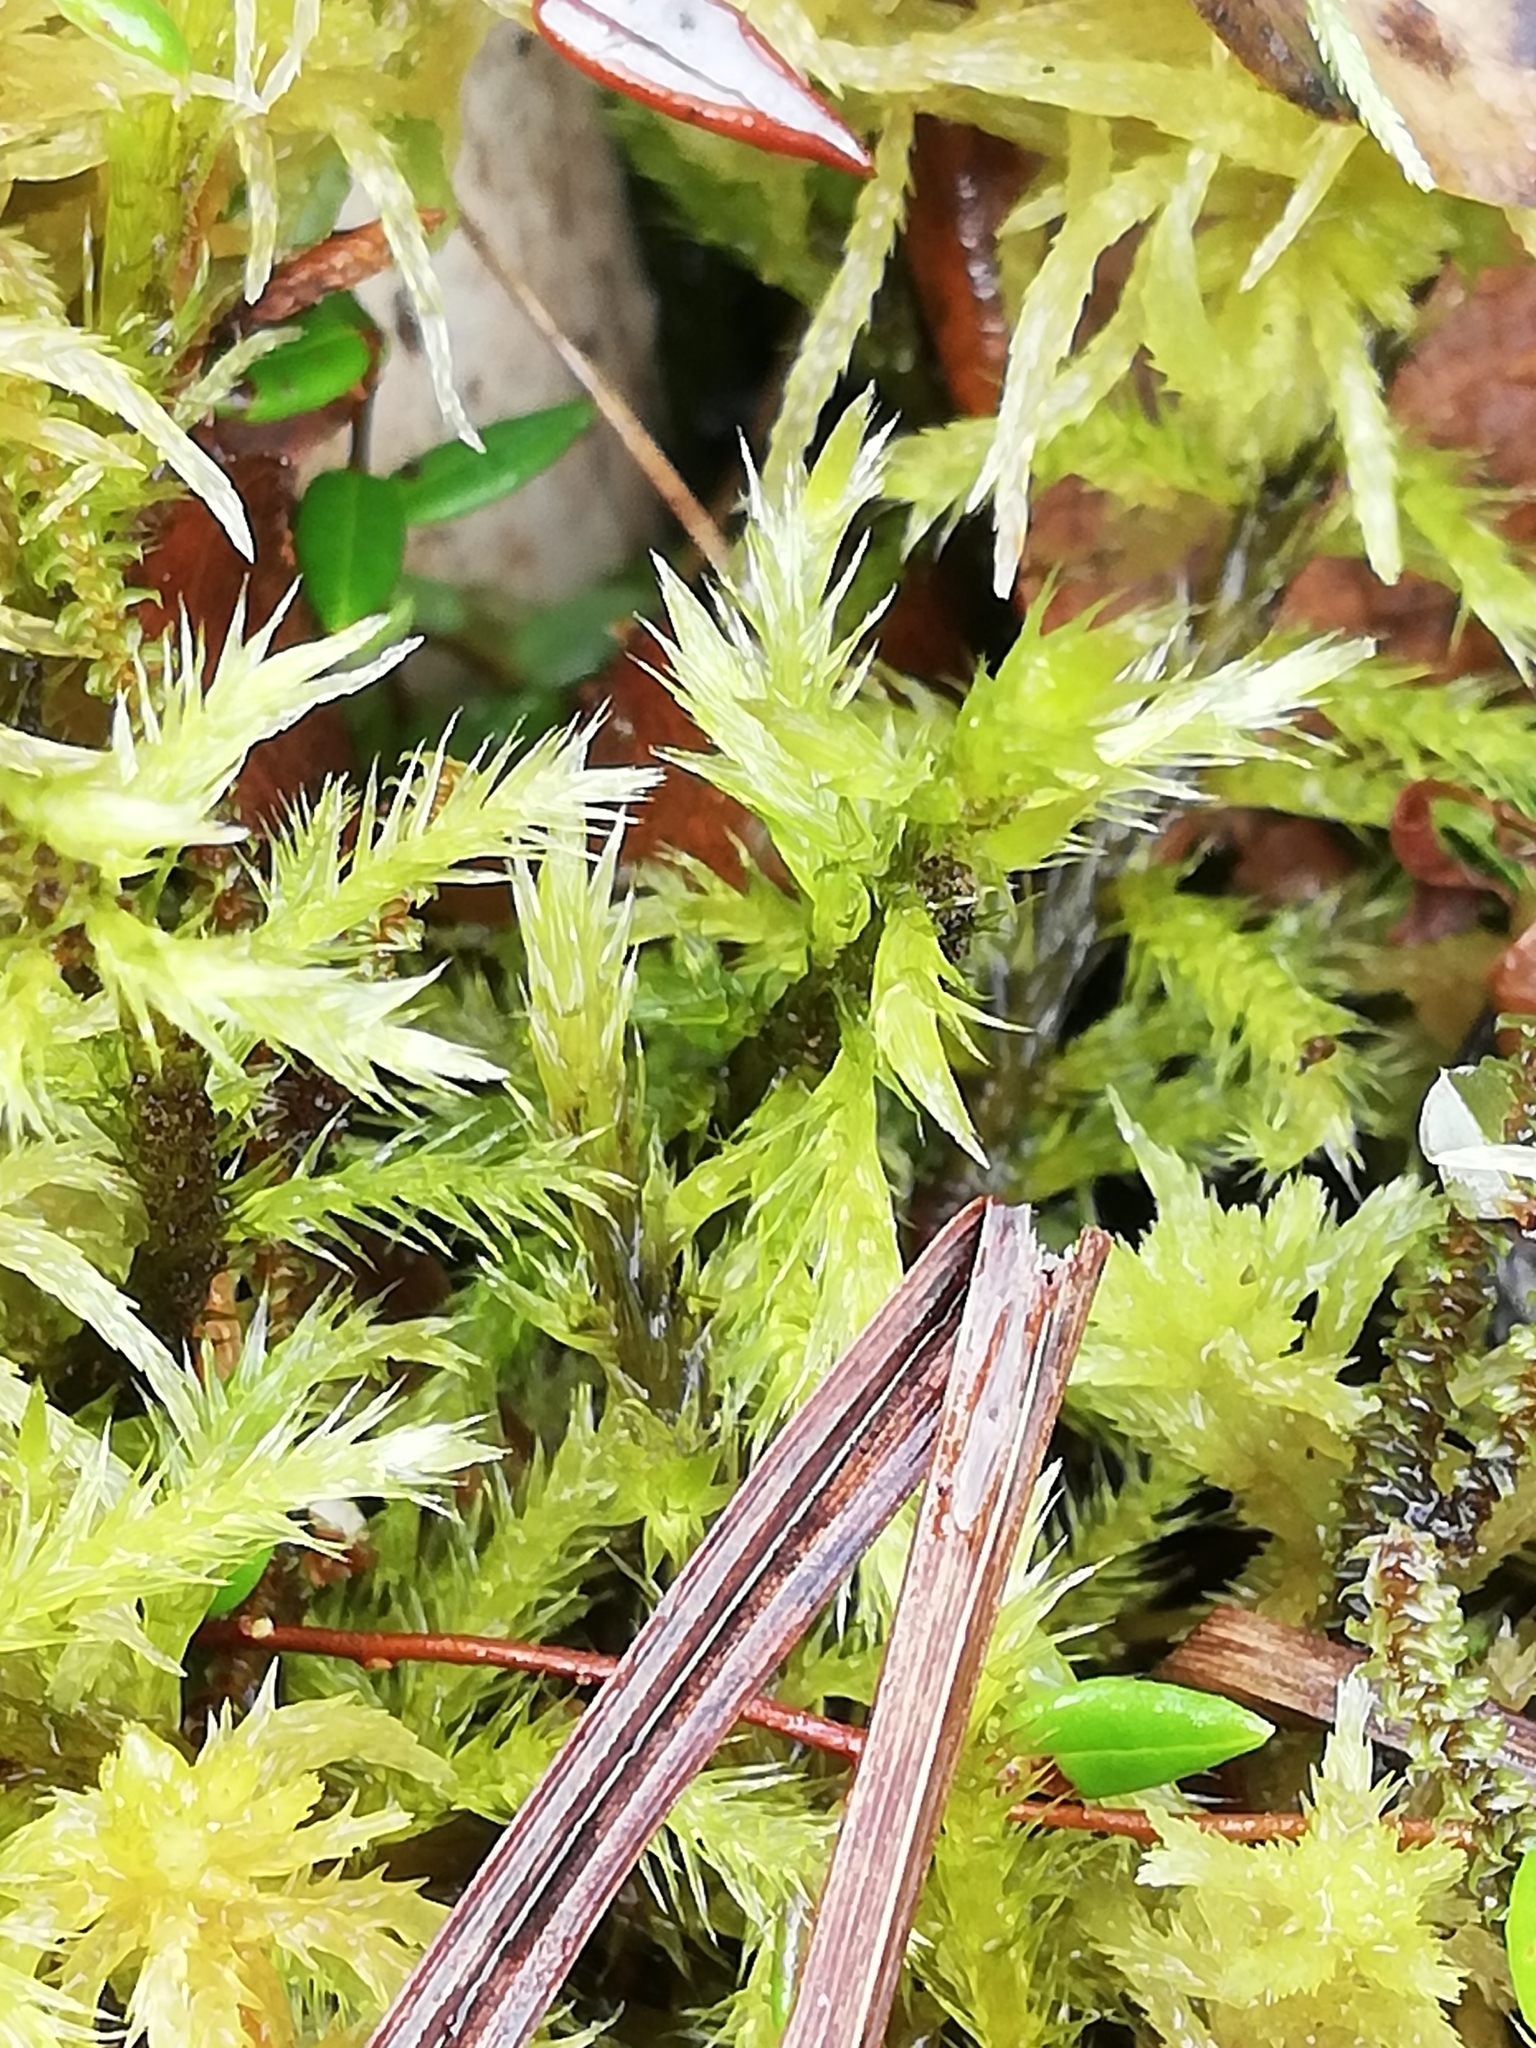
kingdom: Plantae
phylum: Bryophyta
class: Bryopsida
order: Hypnales
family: Amblystegiaceae
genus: Tomentypnum
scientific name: Tomentypnum nitens
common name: Golden fuzzy fen moss
